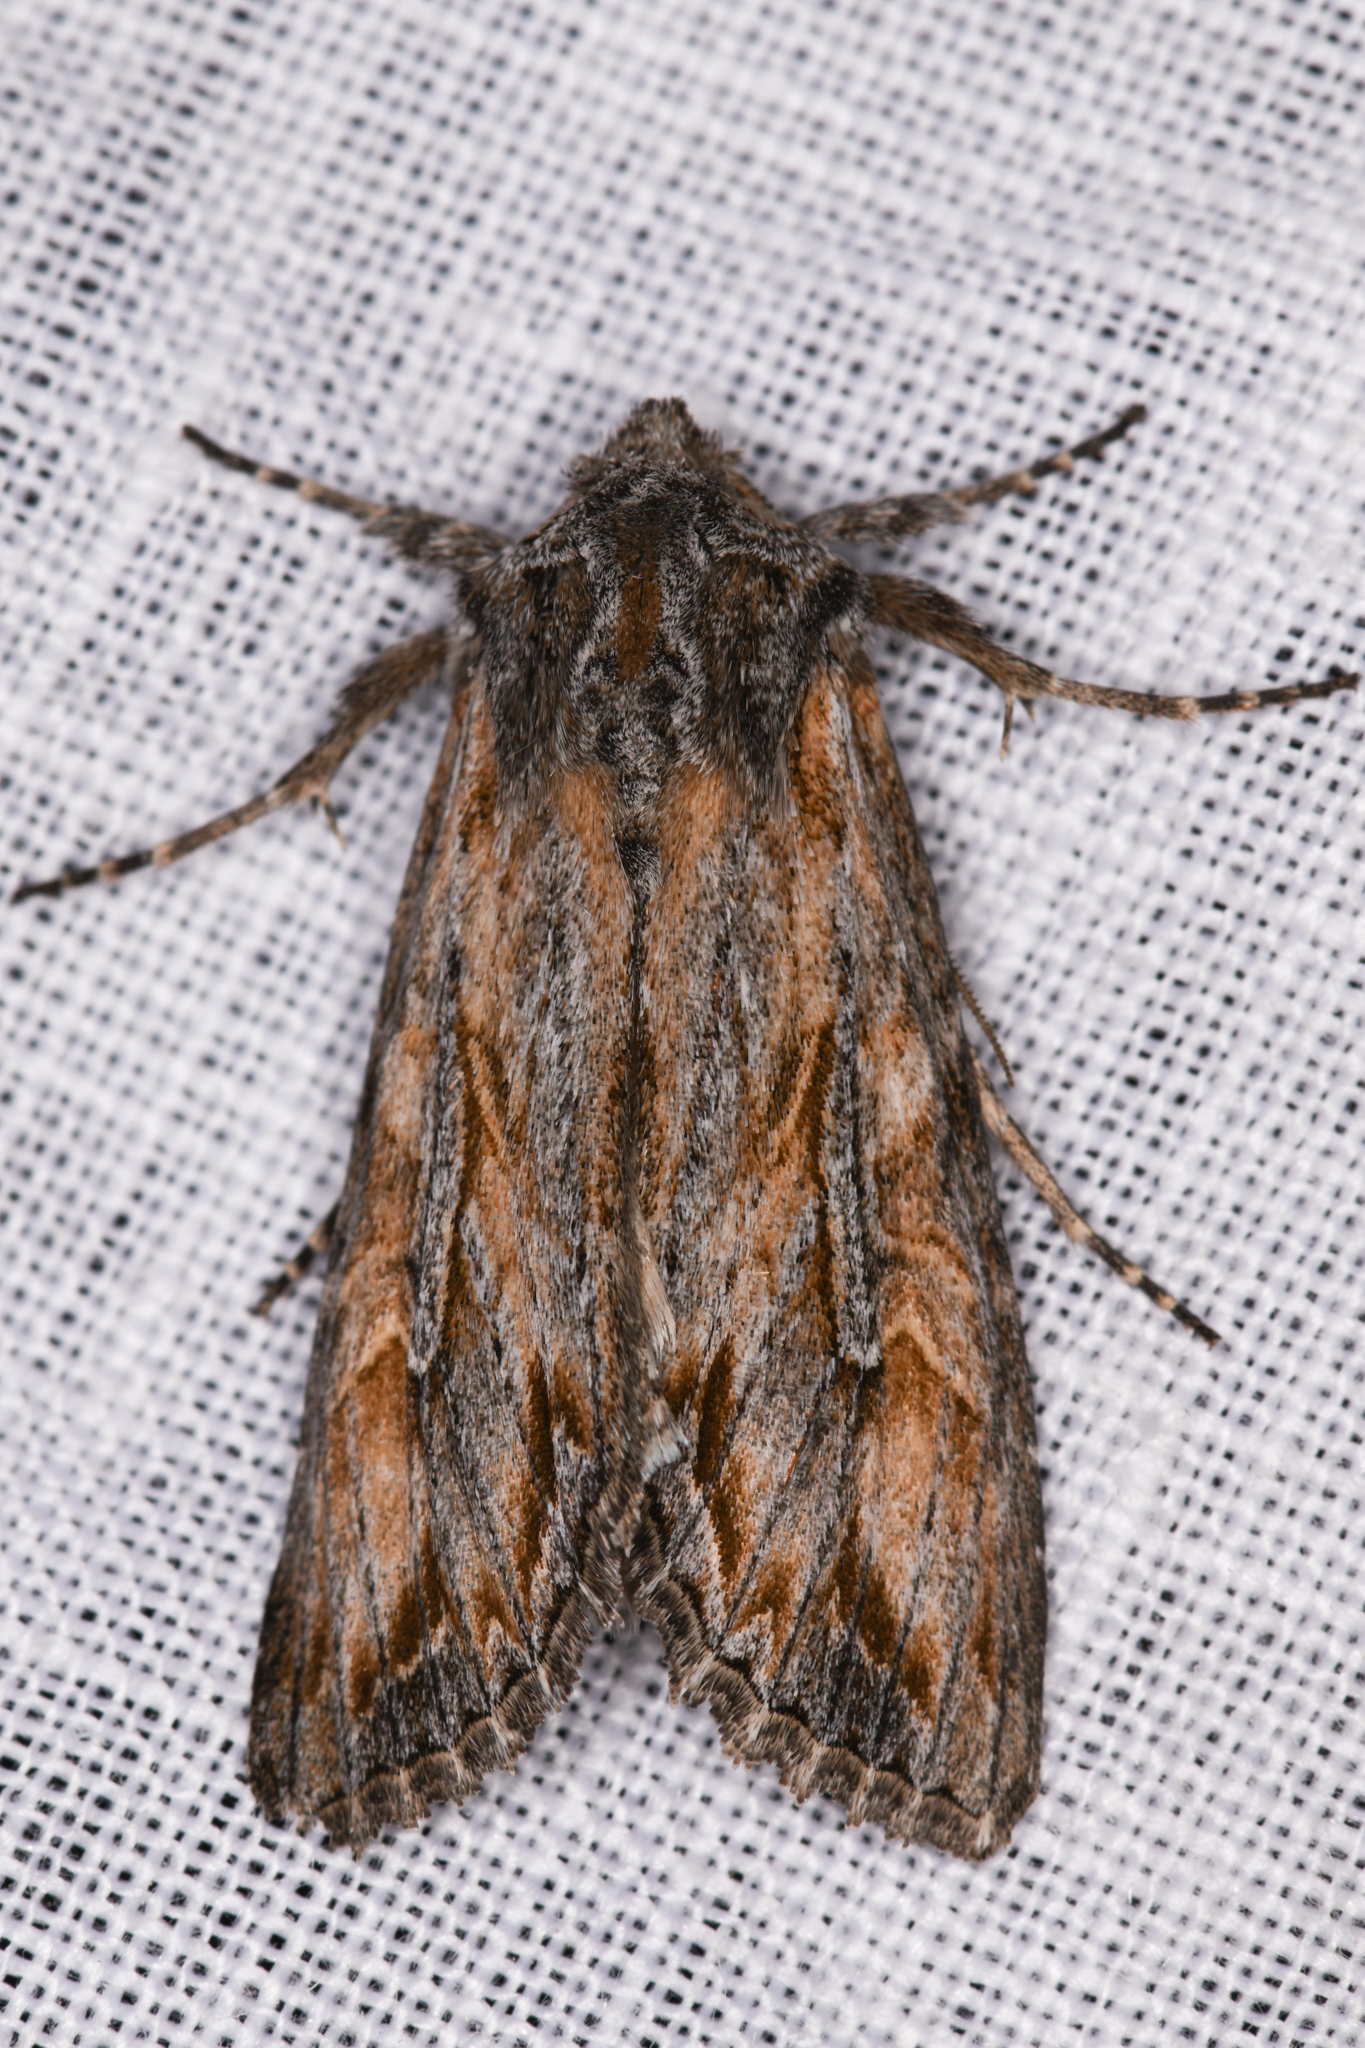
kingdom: Animalia
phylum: Arthropoda
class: Insecta
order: Lepidoptera
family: Noctuidae
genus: Polia
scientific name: Polia nugatis
